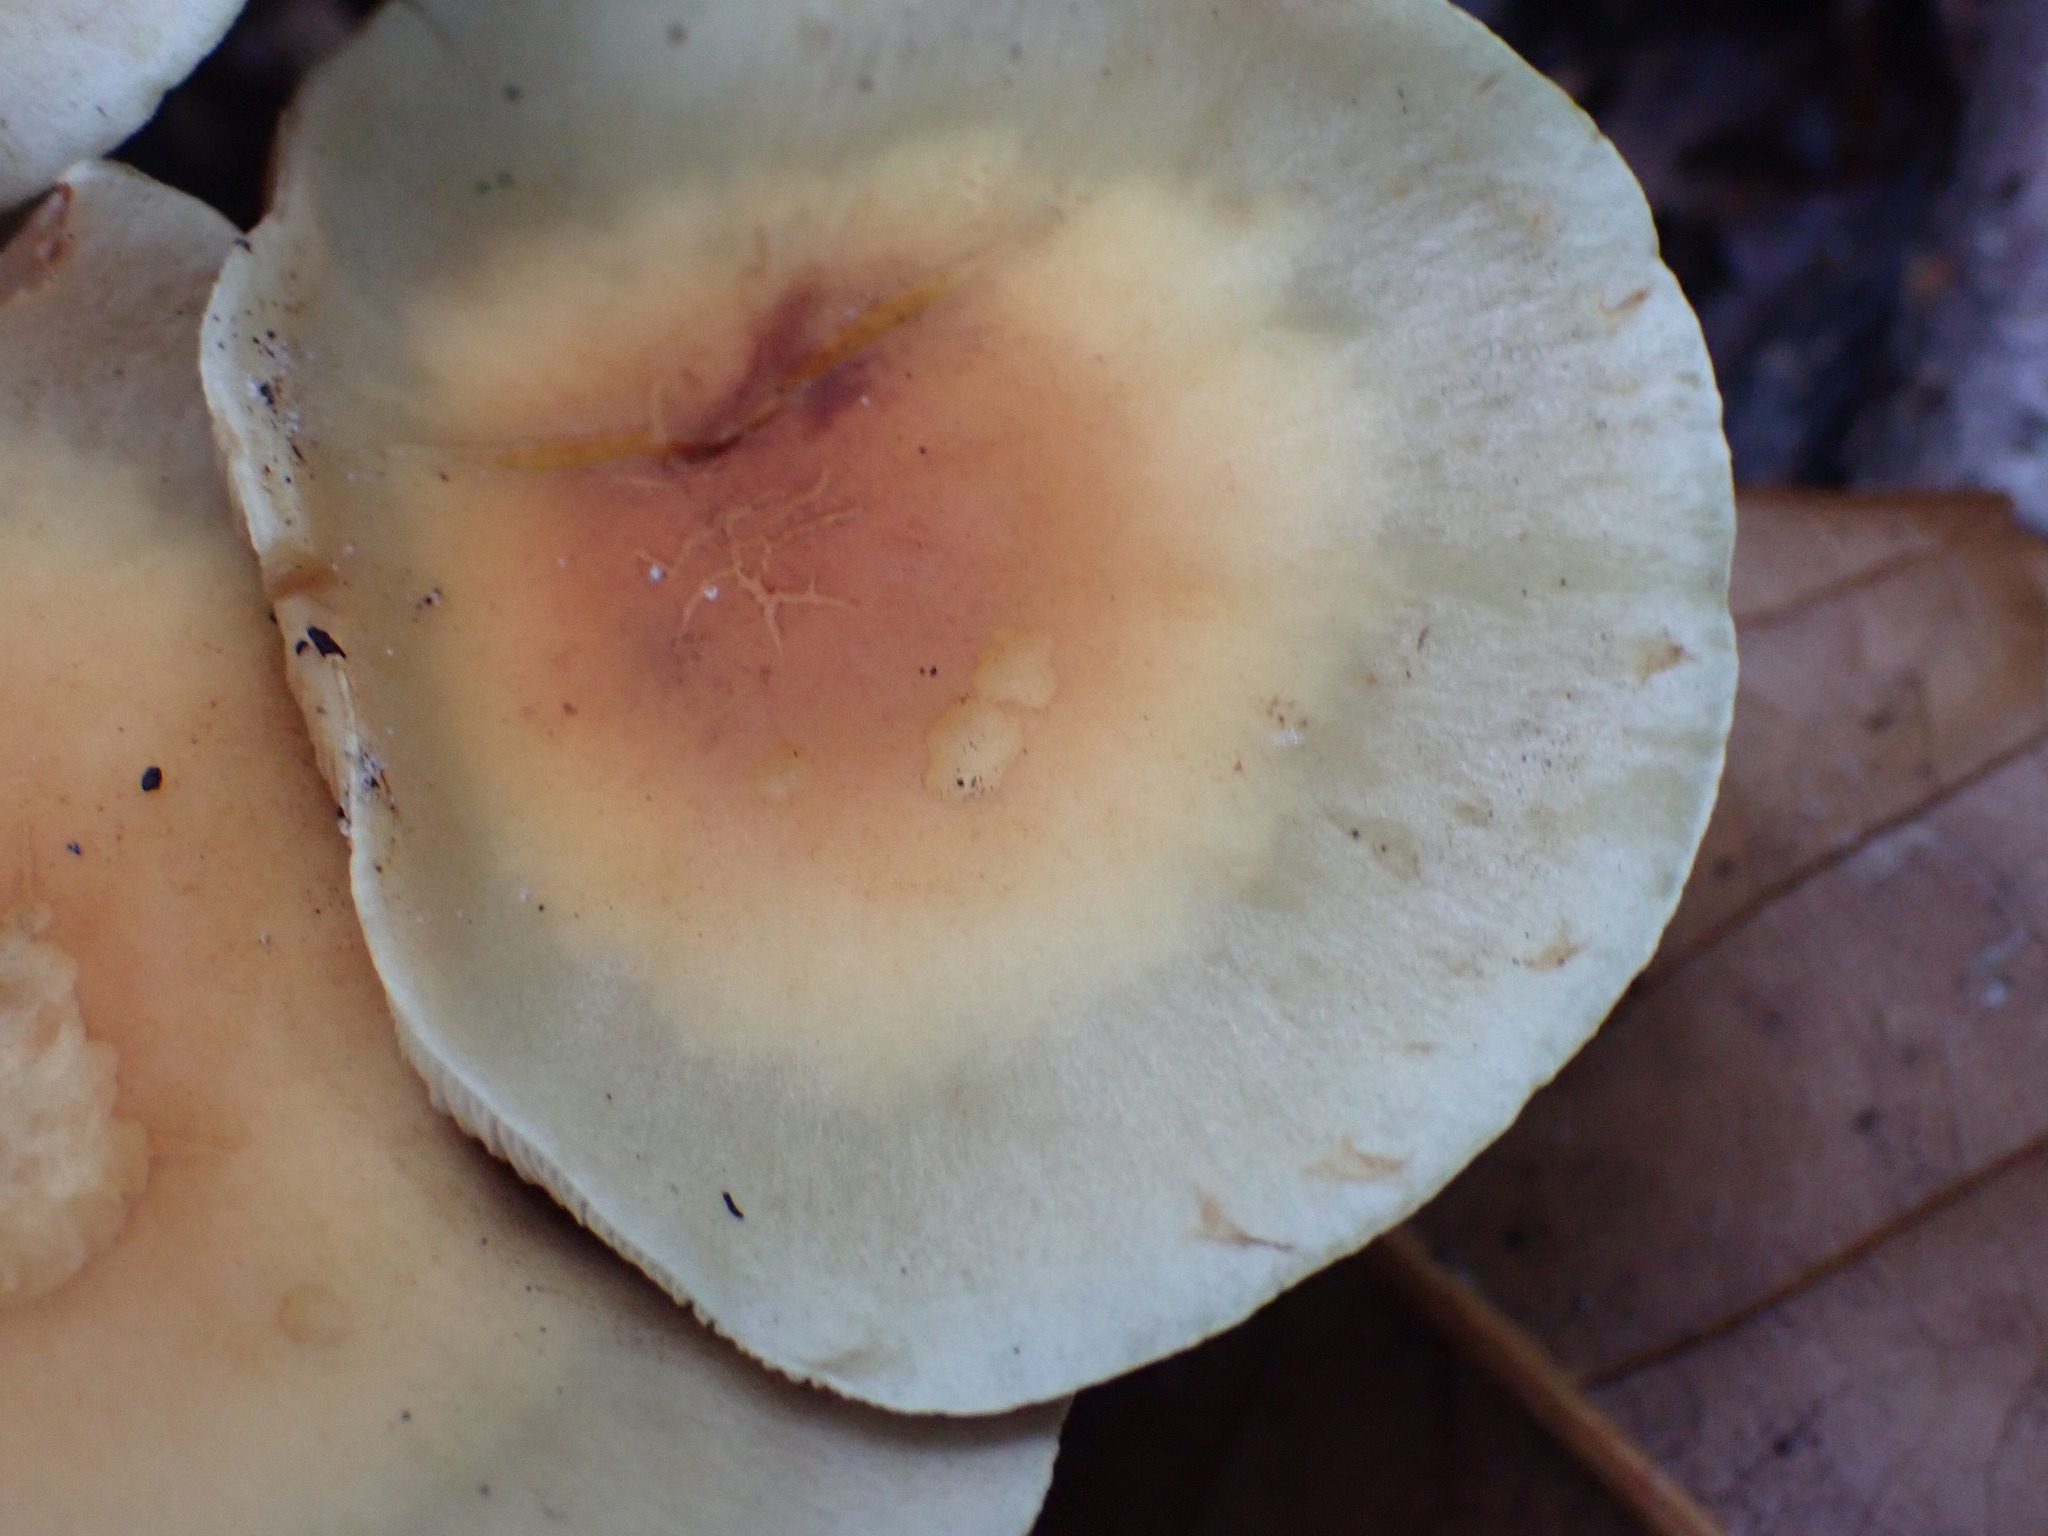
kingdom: Fungi
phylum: Basidiomycota
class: Agaricomycetes
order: Agaricales
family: Strophariaceae
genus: Hypholoma
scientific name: Hypholoma fasciculare
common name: Sulphur tuft
